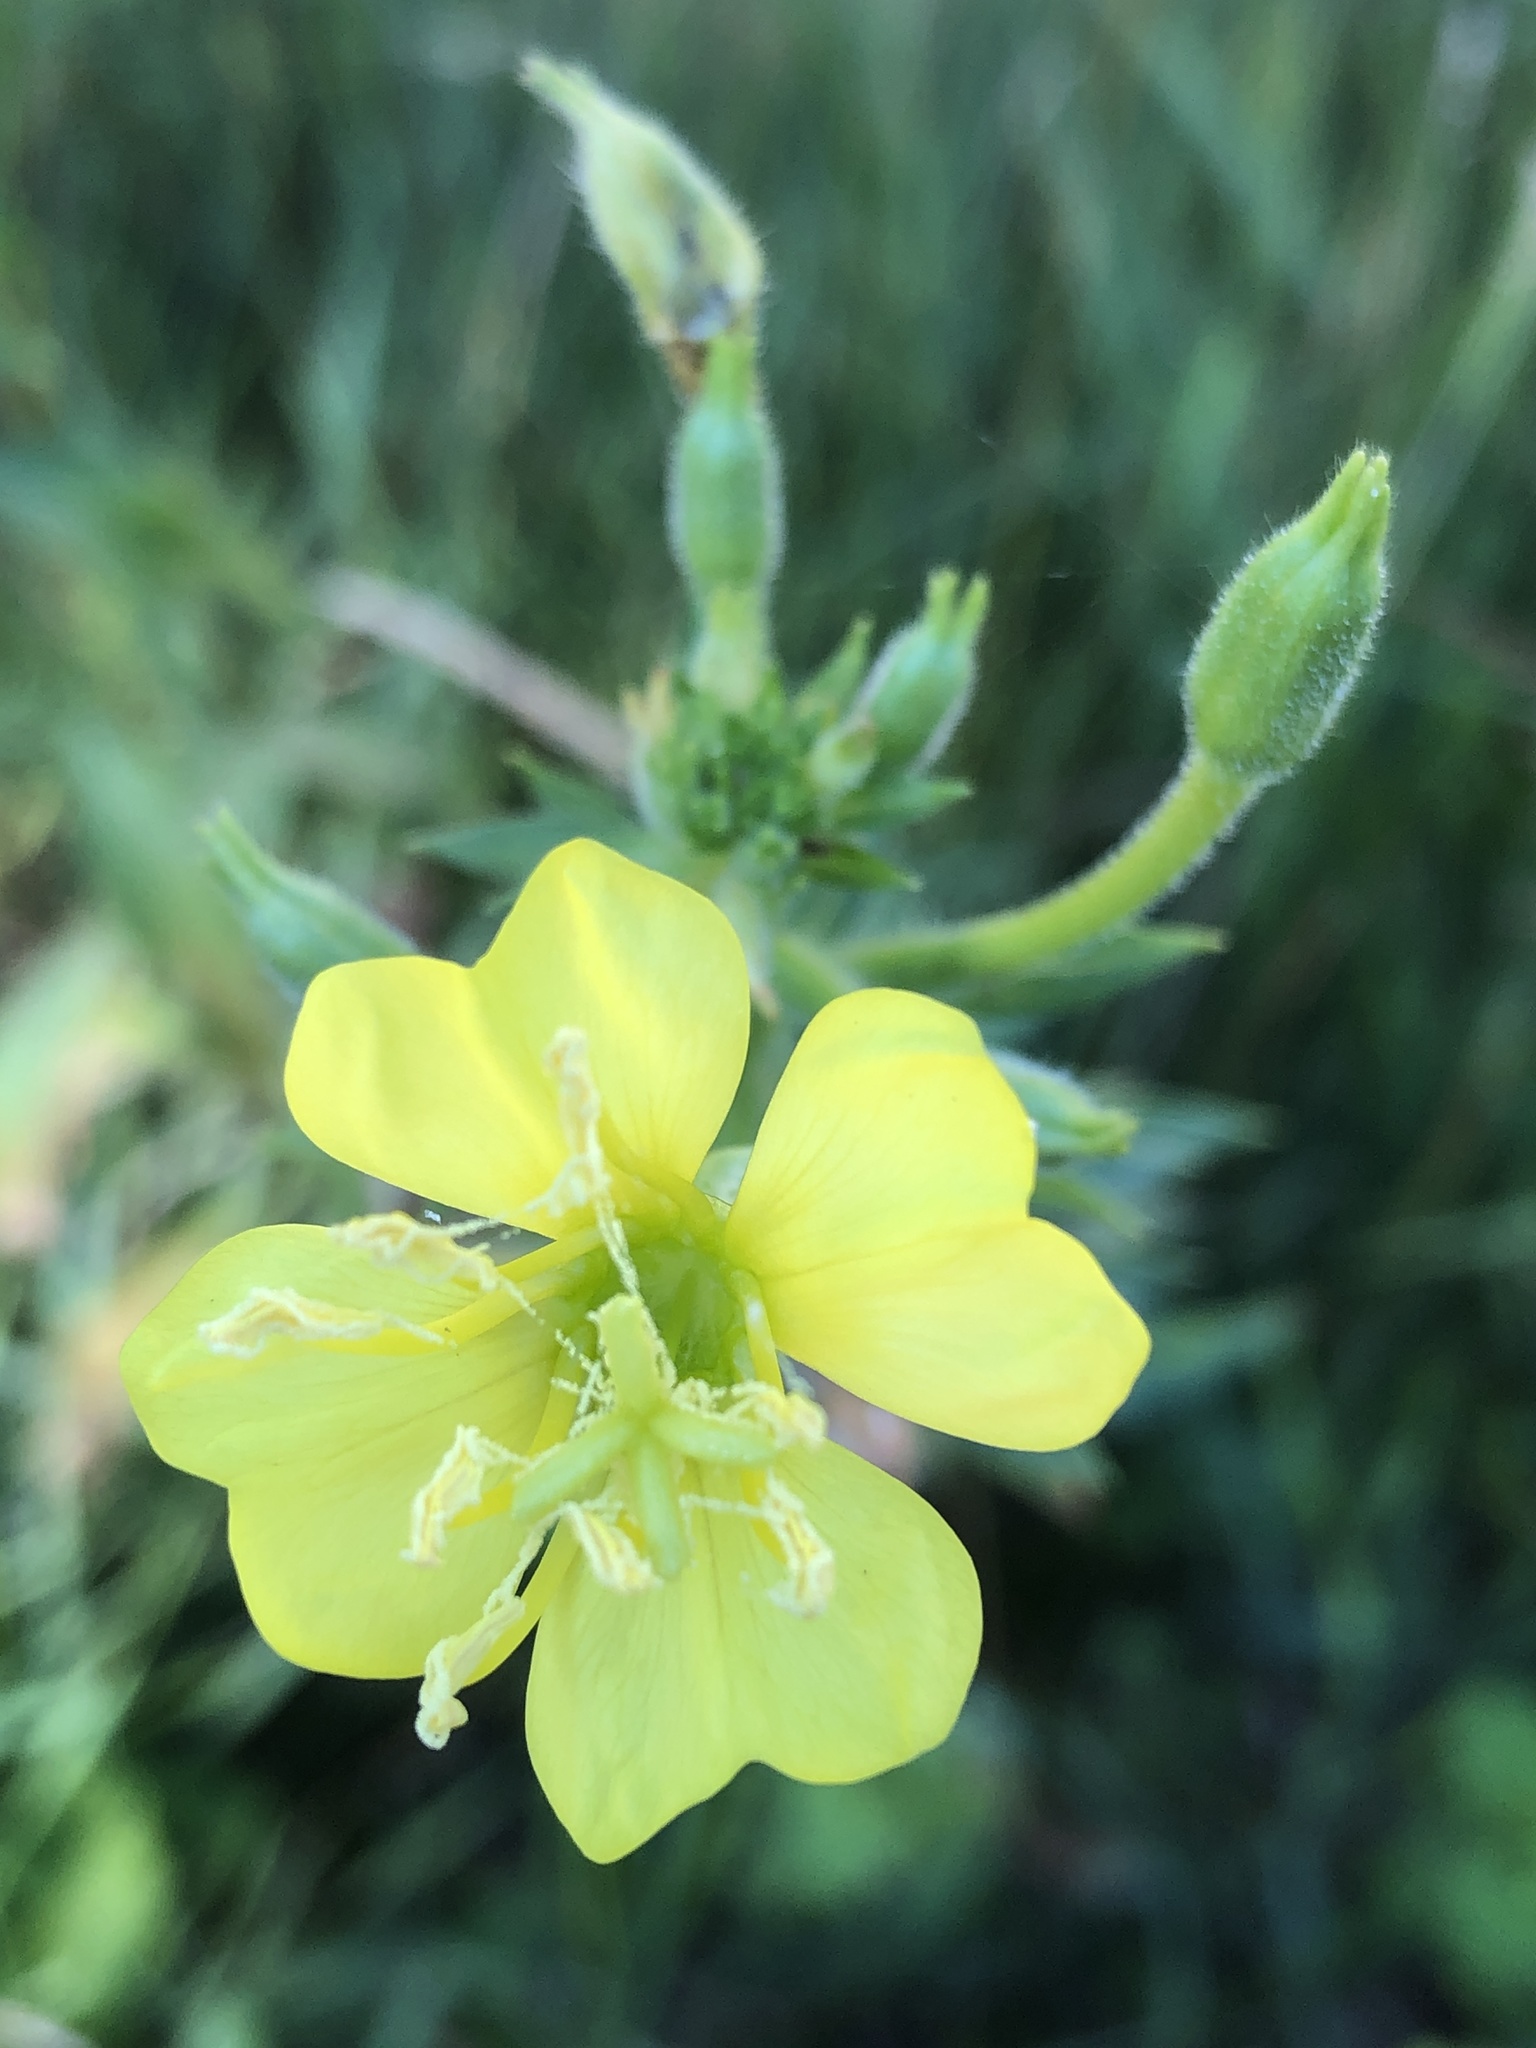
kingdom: Plantae
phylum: Tracheophyta
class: Magnoliopsida
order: Myrtales
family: Onagraceae
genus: Oenothera
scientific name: Oenothera biennis
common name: Common evening-primrose
